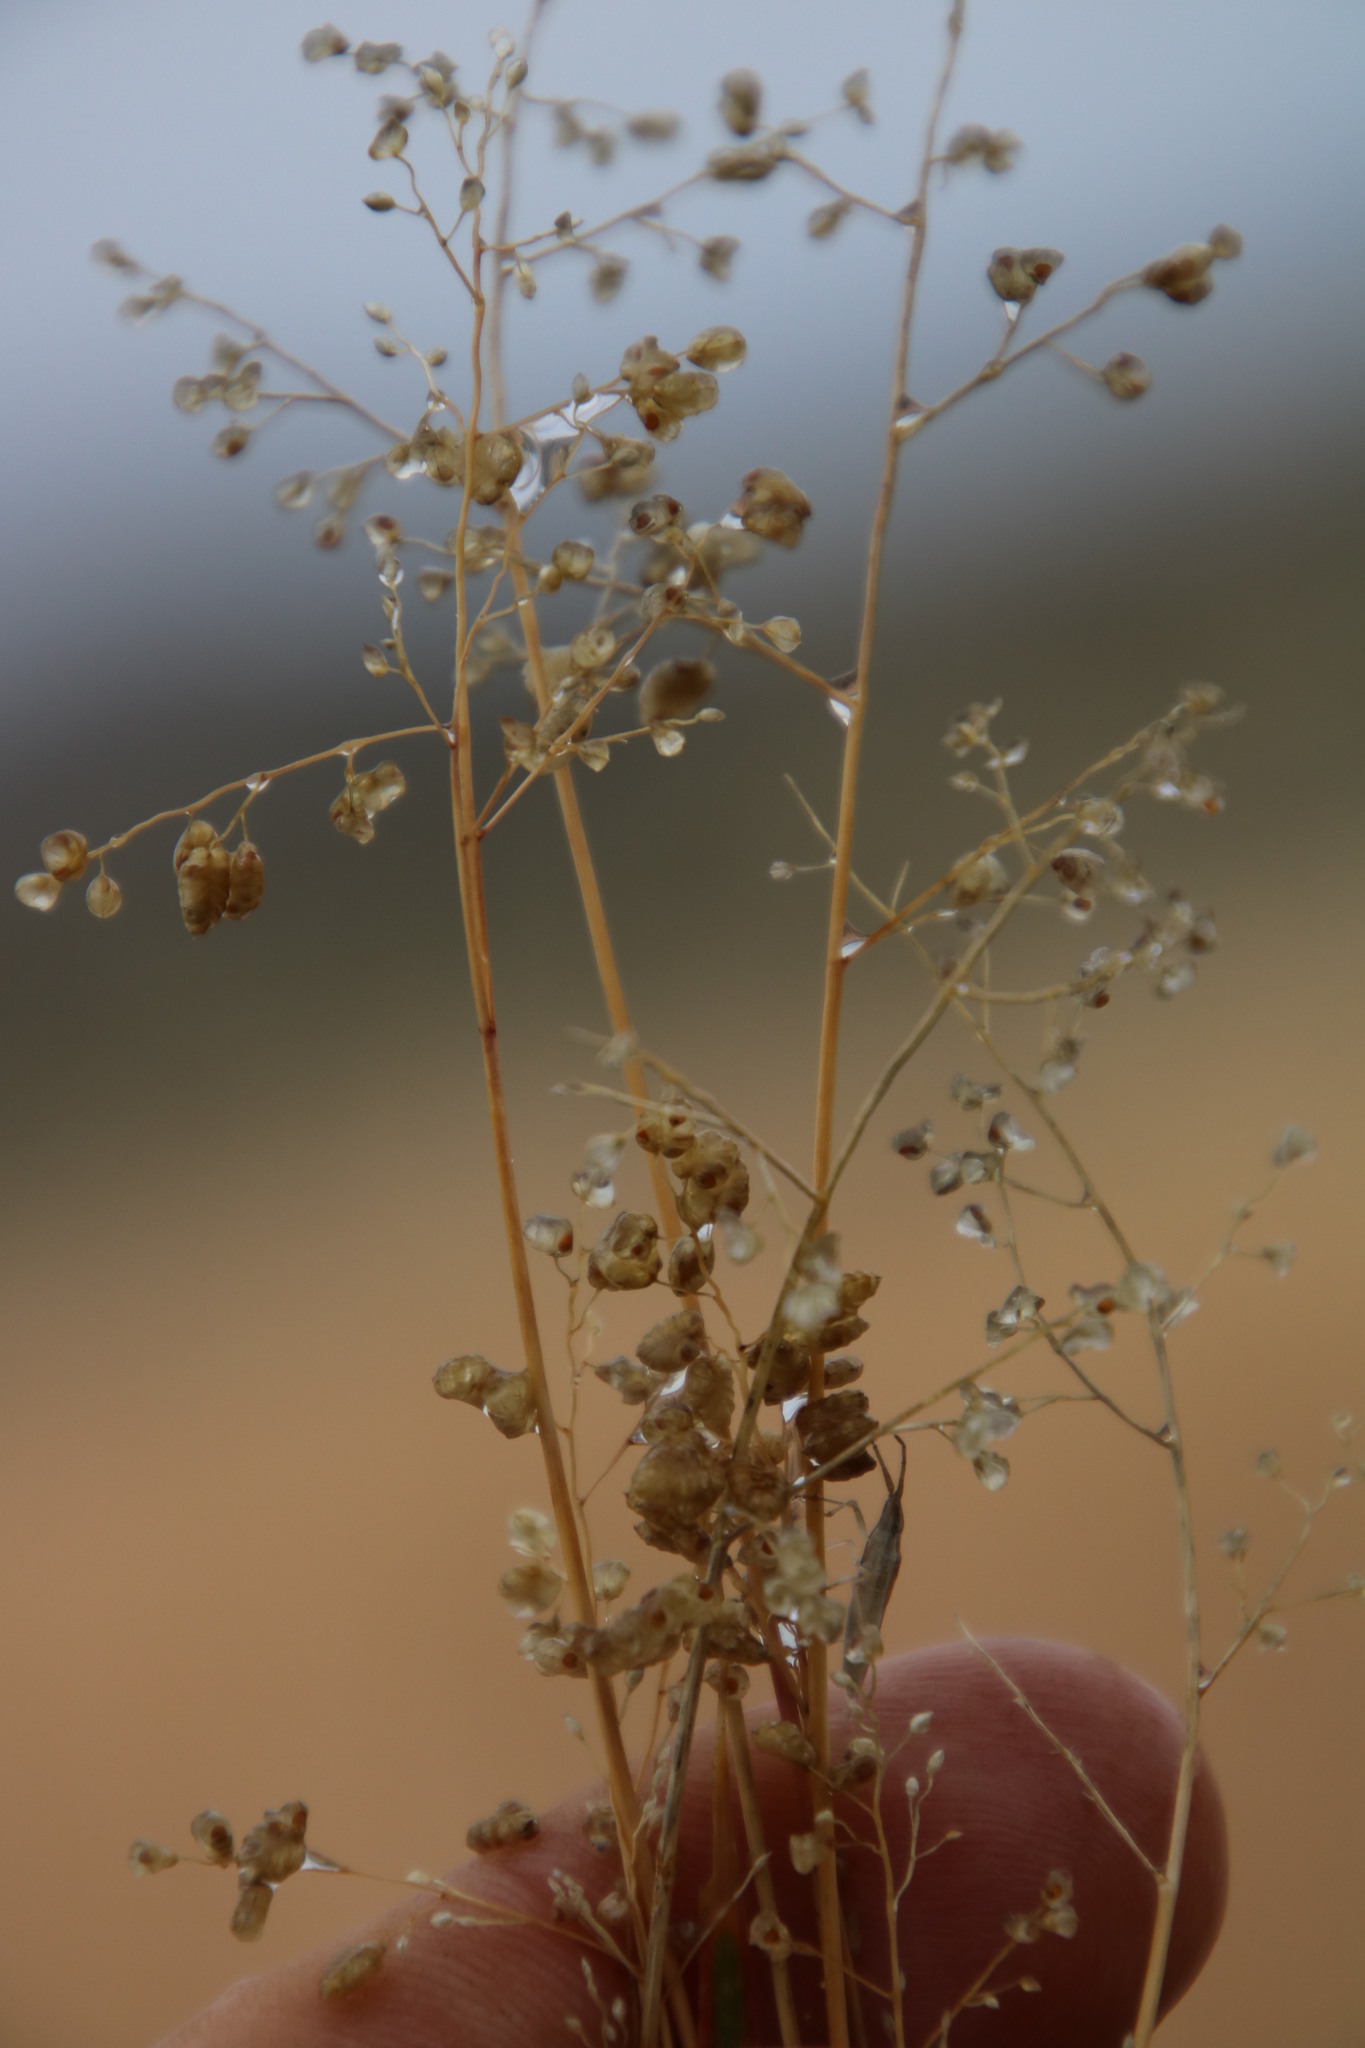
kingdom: Plantae
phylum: Tracheophyta
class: Liliopsida
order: Poales
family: Poaceae
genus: Eragrostis
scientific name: Eragrostis obtusa
